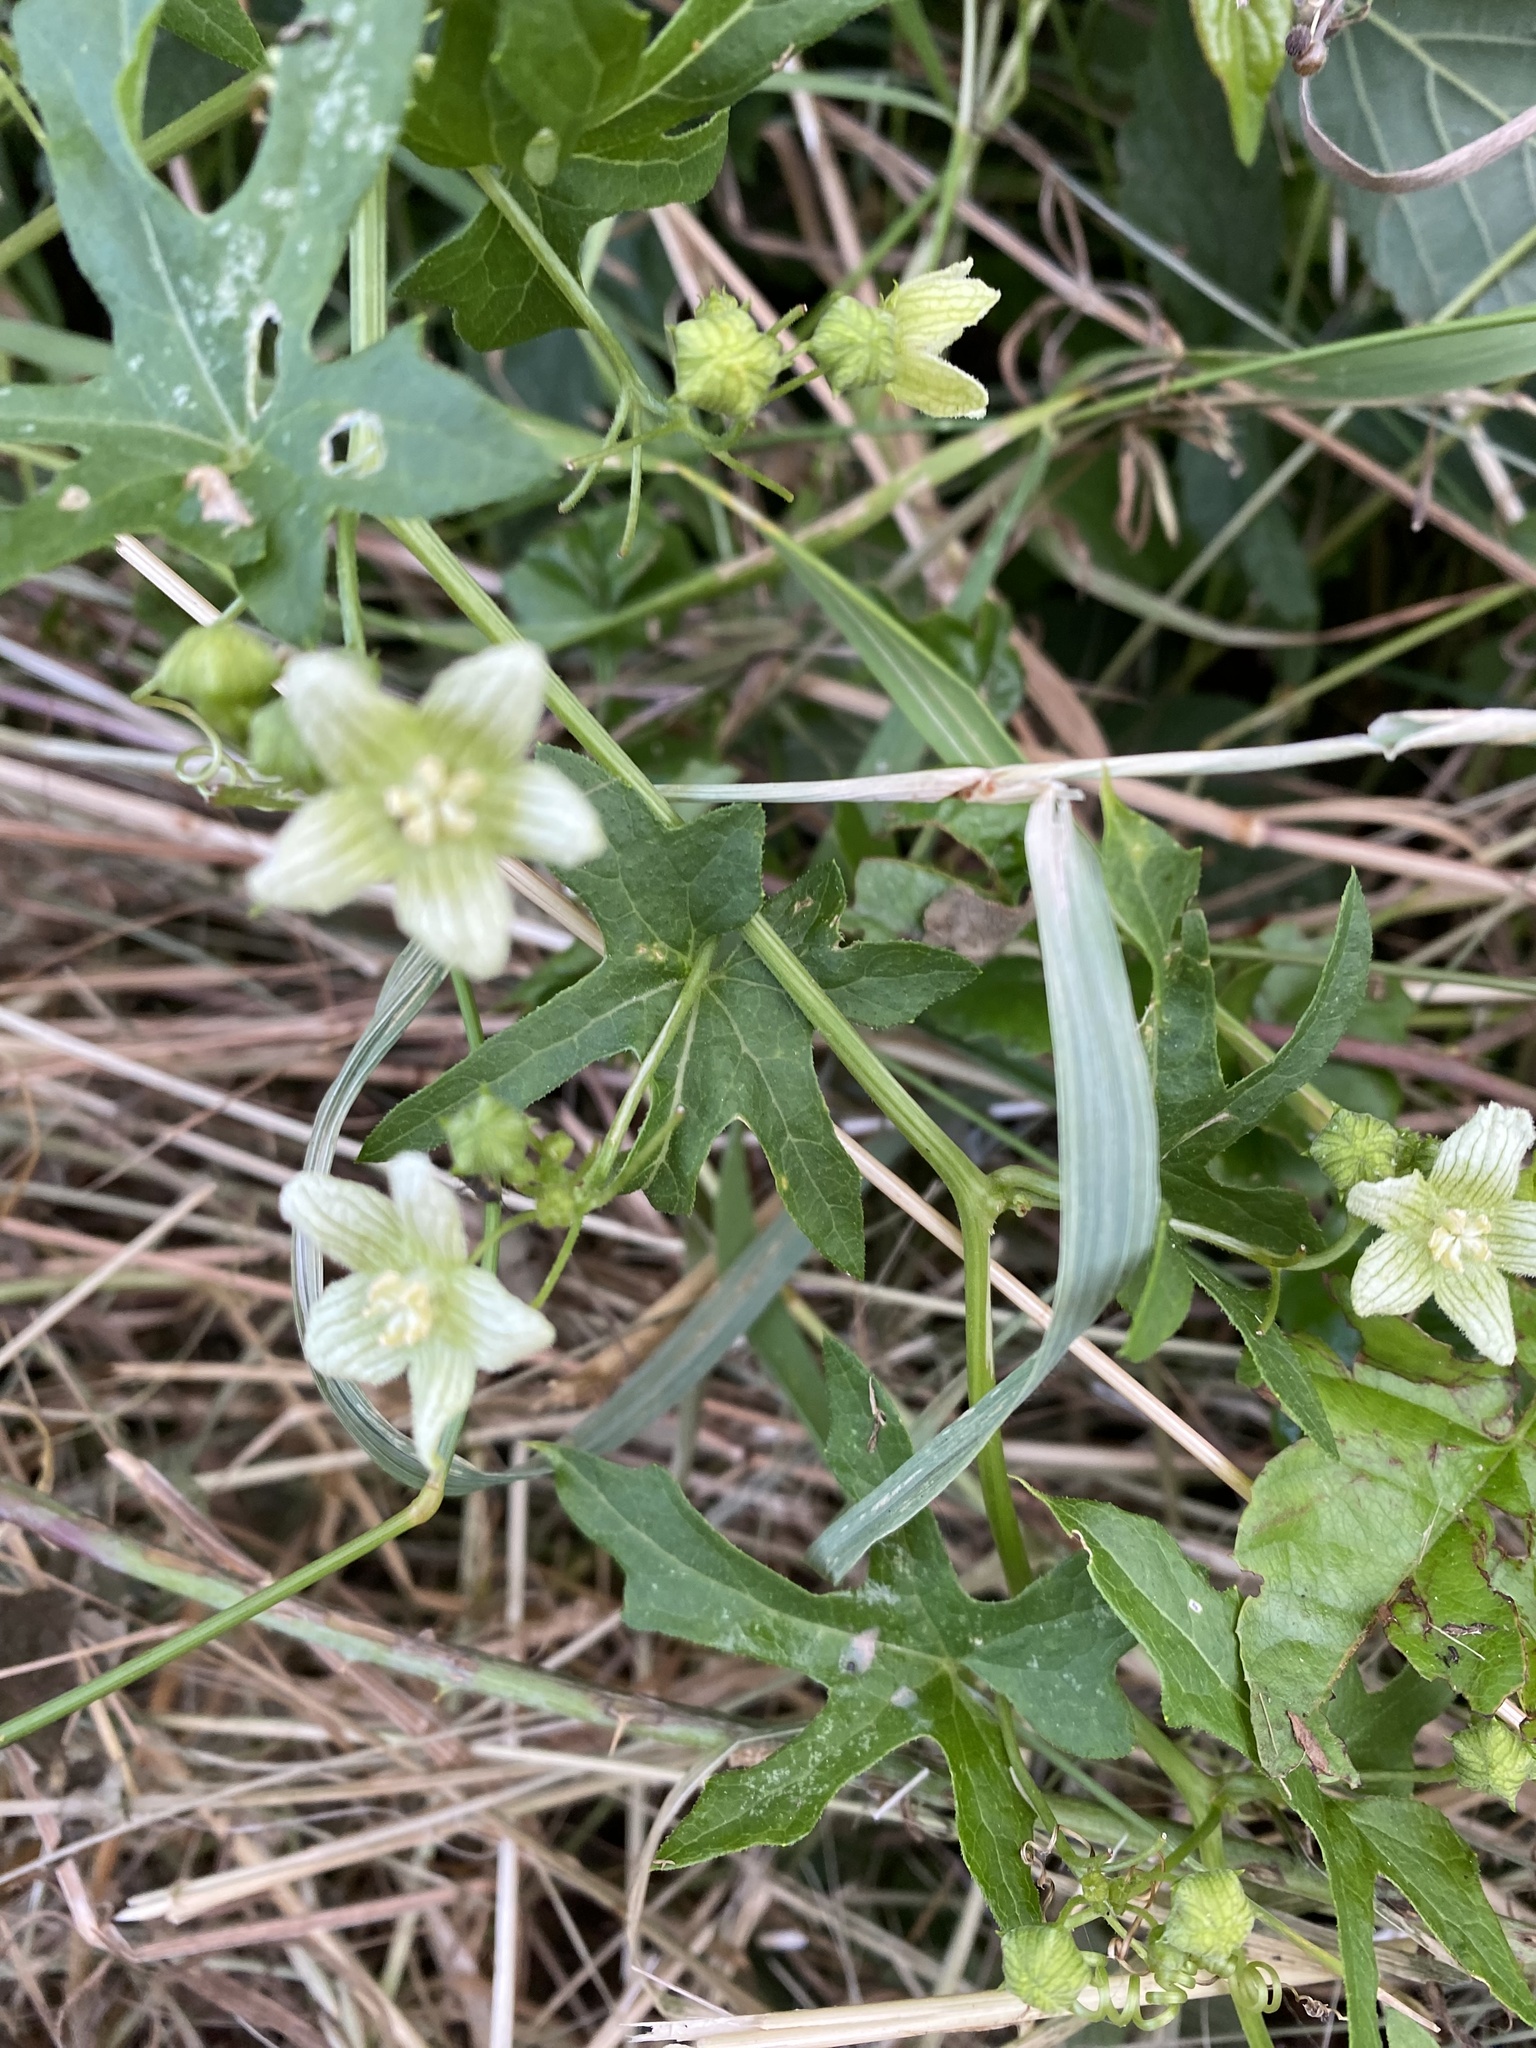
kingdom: Plantae
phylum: Tracheophyta
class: Magnoliopsida
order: Cucurbitales
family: Cucurbitaceae
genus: Bryonia
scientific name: Bryonia cretica
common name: Cretan bryony
